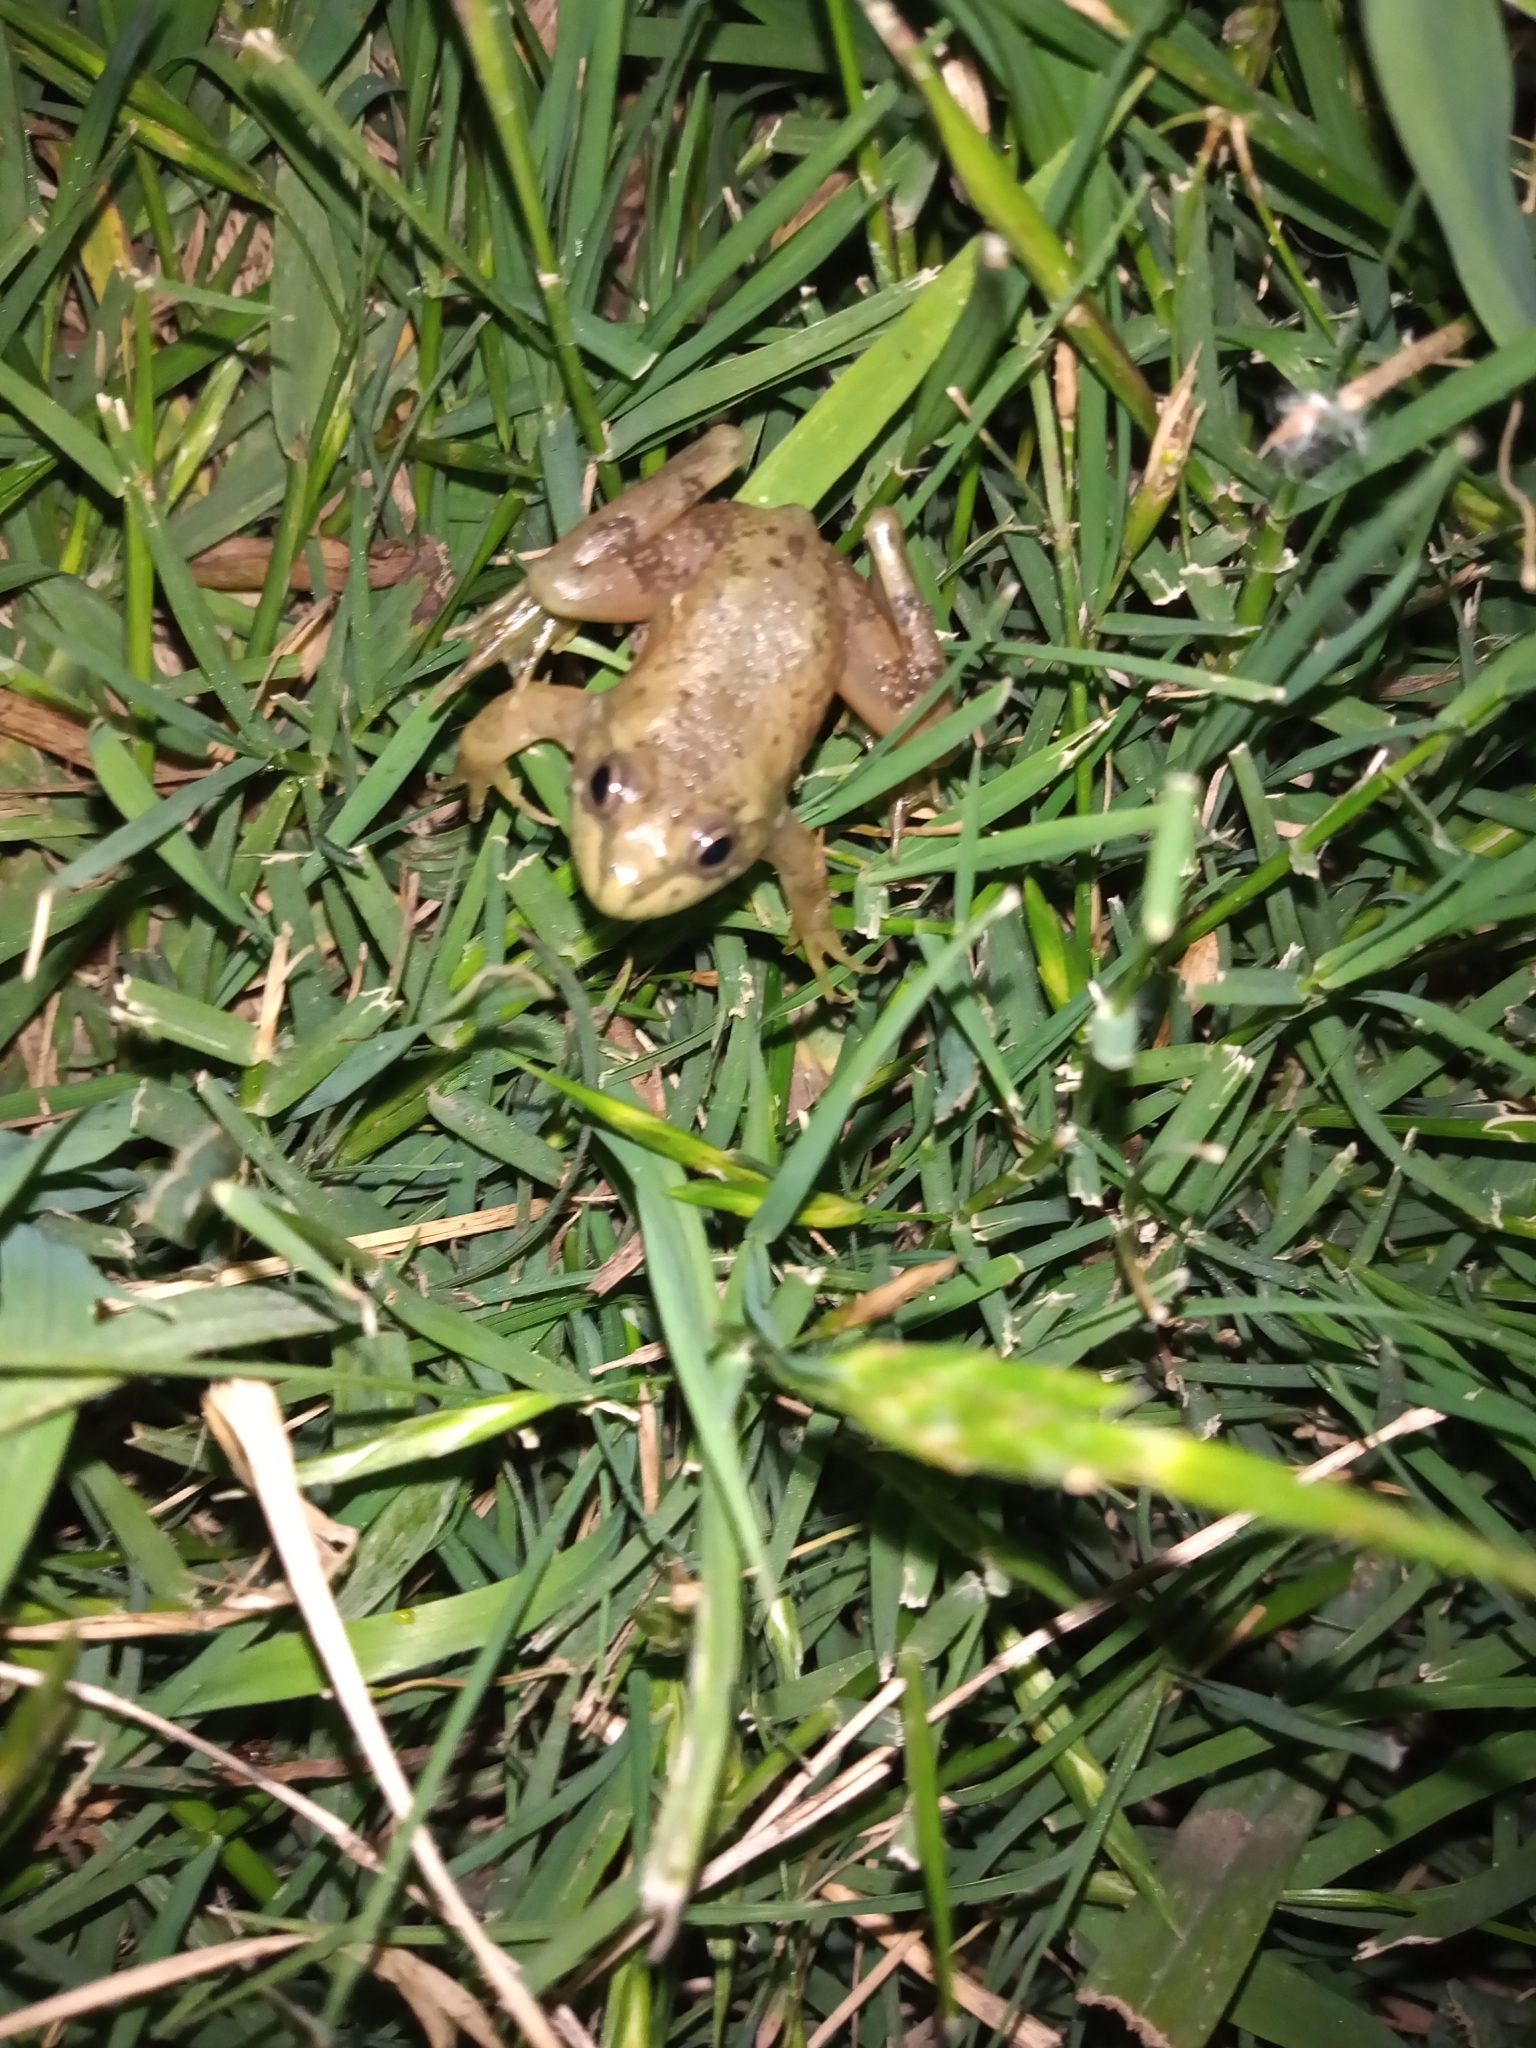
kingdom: Animalia
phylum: Chordata
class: Amphibia
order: Anura
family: Hylidae
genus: Pseudis
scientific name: Pseudis minuta
